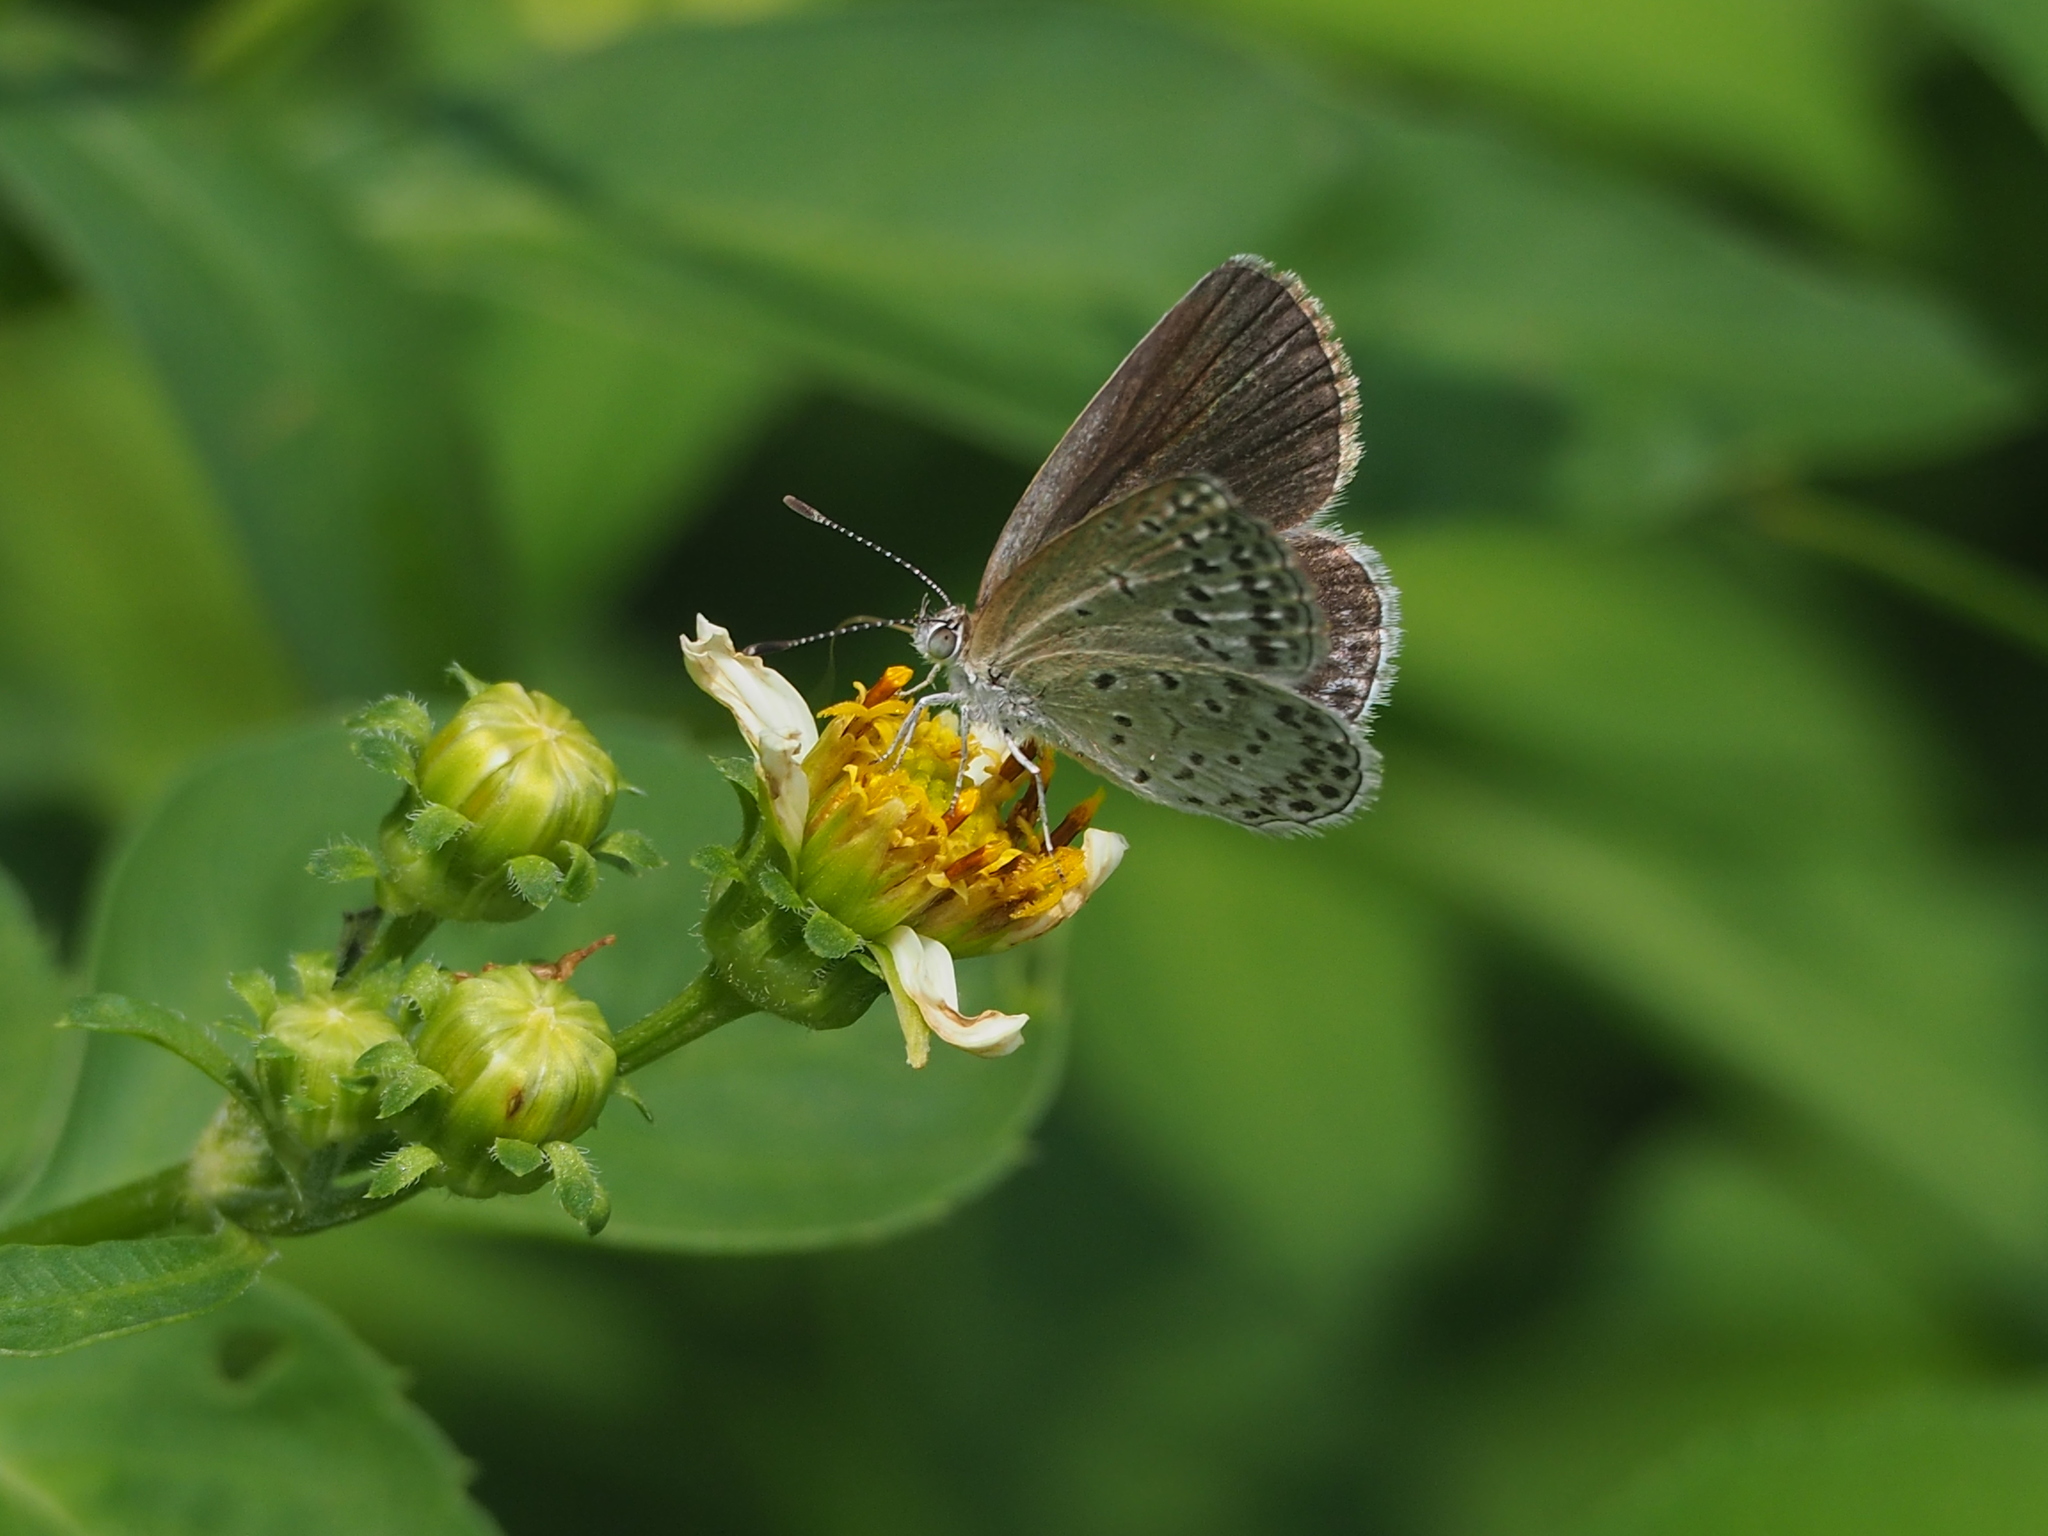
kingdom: Animalia
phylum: Arthropoda
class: Insecta
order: Lepidoptera
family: Lycaenidae
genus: Pseudozizeeria
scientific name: Pseudozizeeria maha
